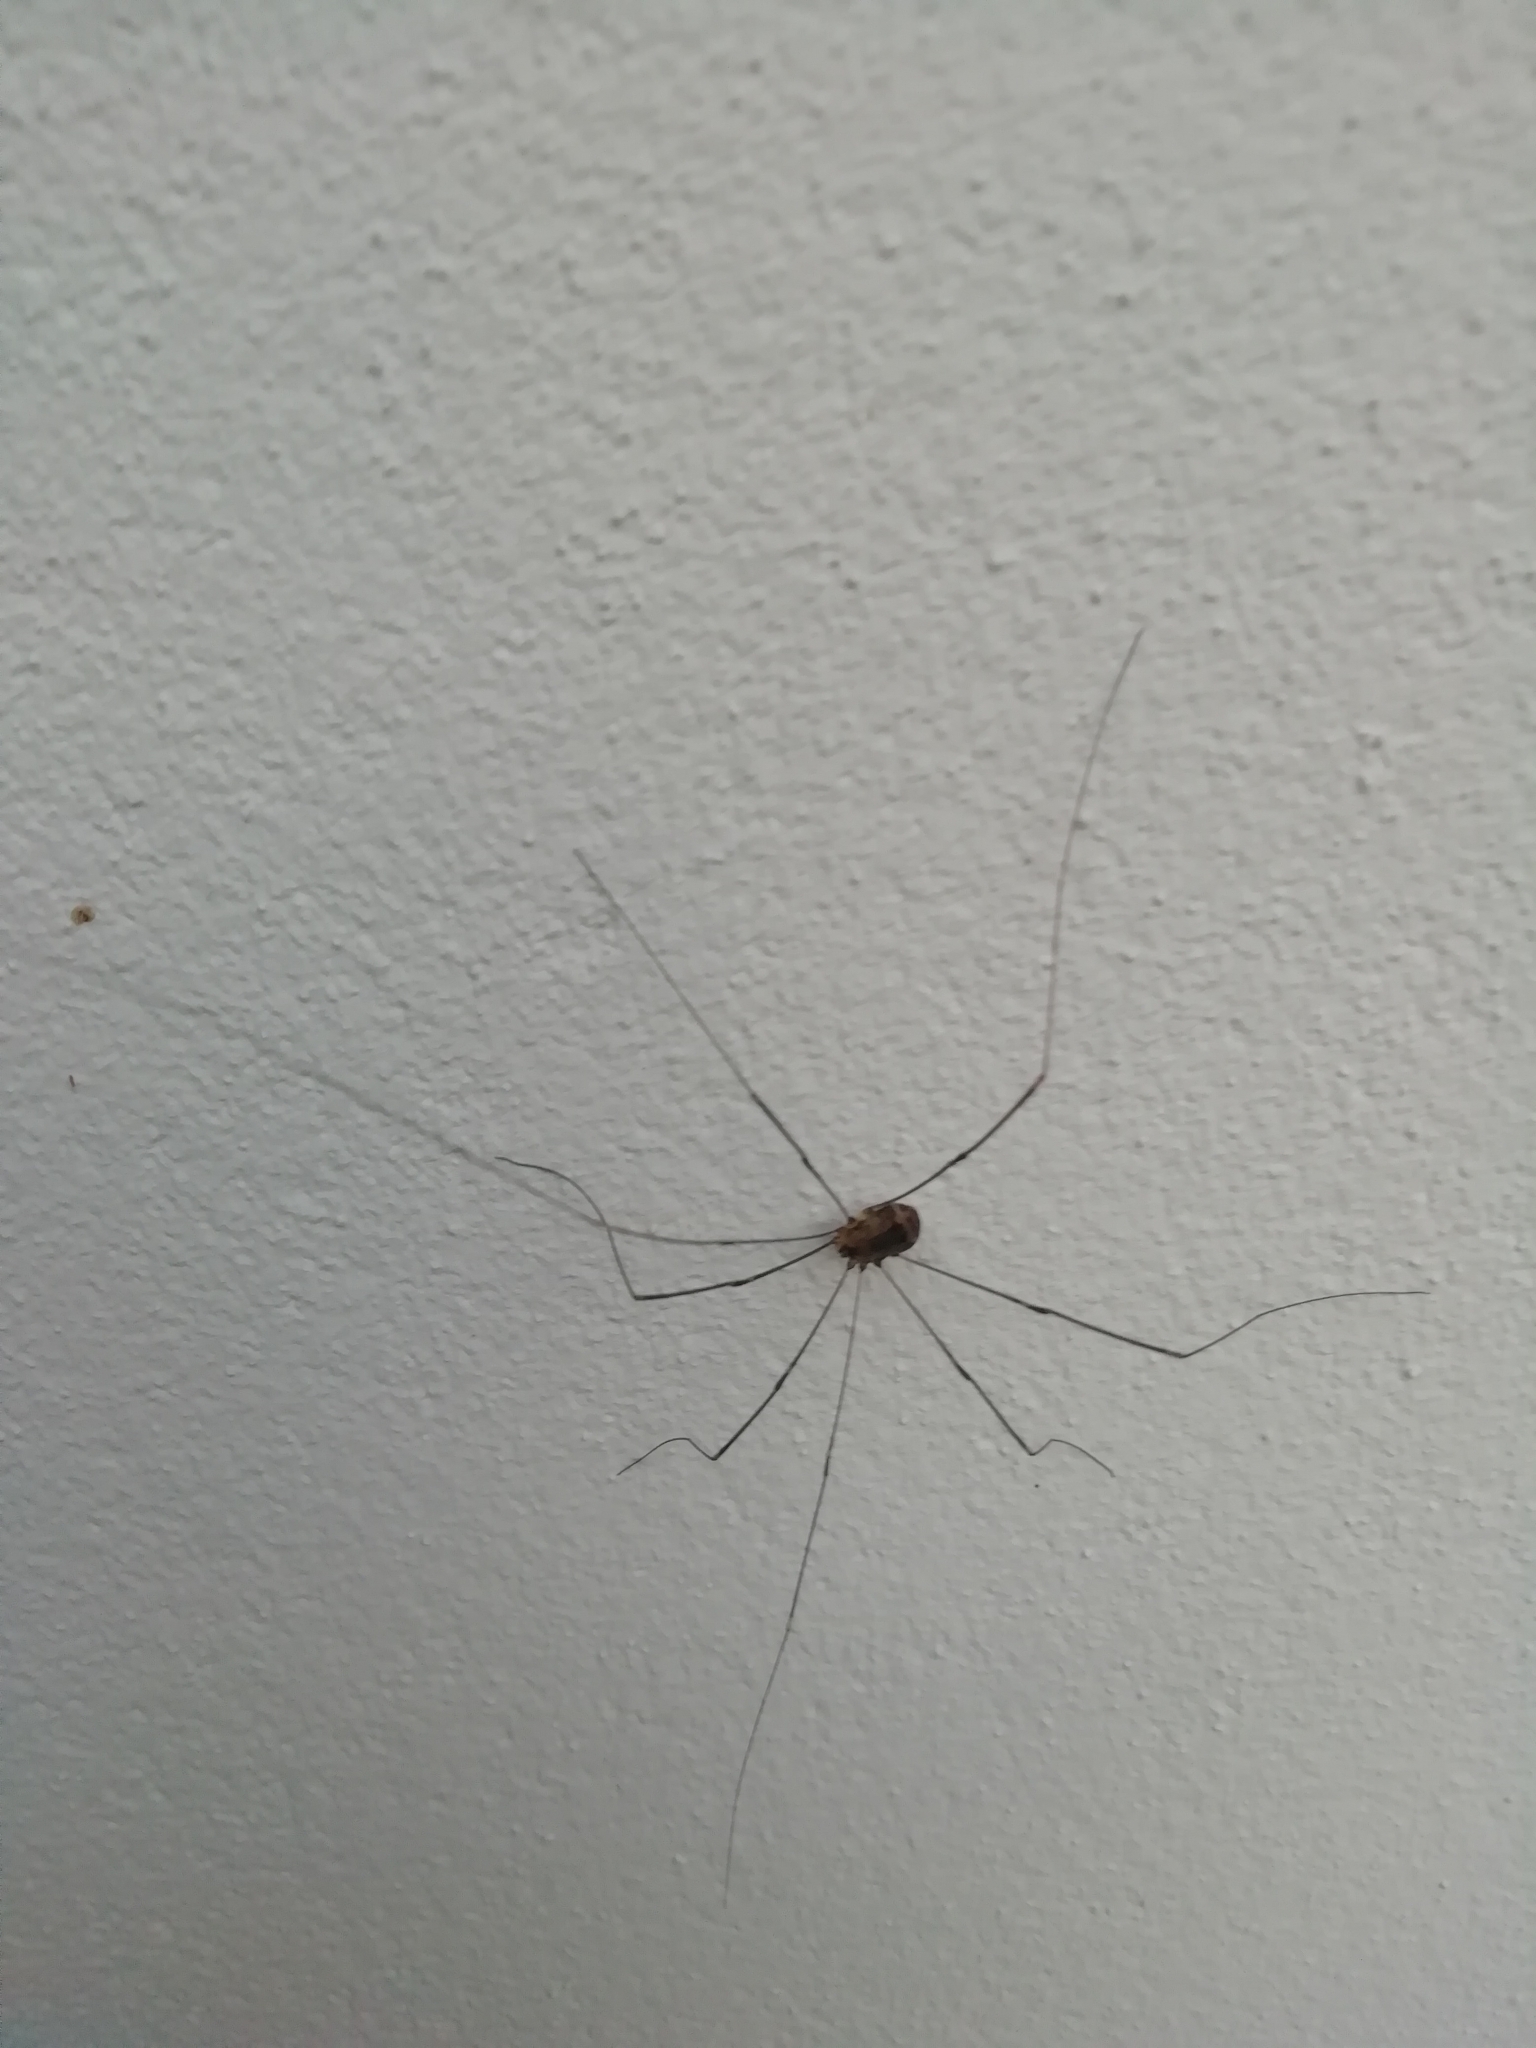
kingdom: Animalia
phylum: Arthropoda
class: Arachnida
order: Opiliones
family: Sclerosomatidae
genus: Leiobunum
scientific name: Leiobunum rotundum
